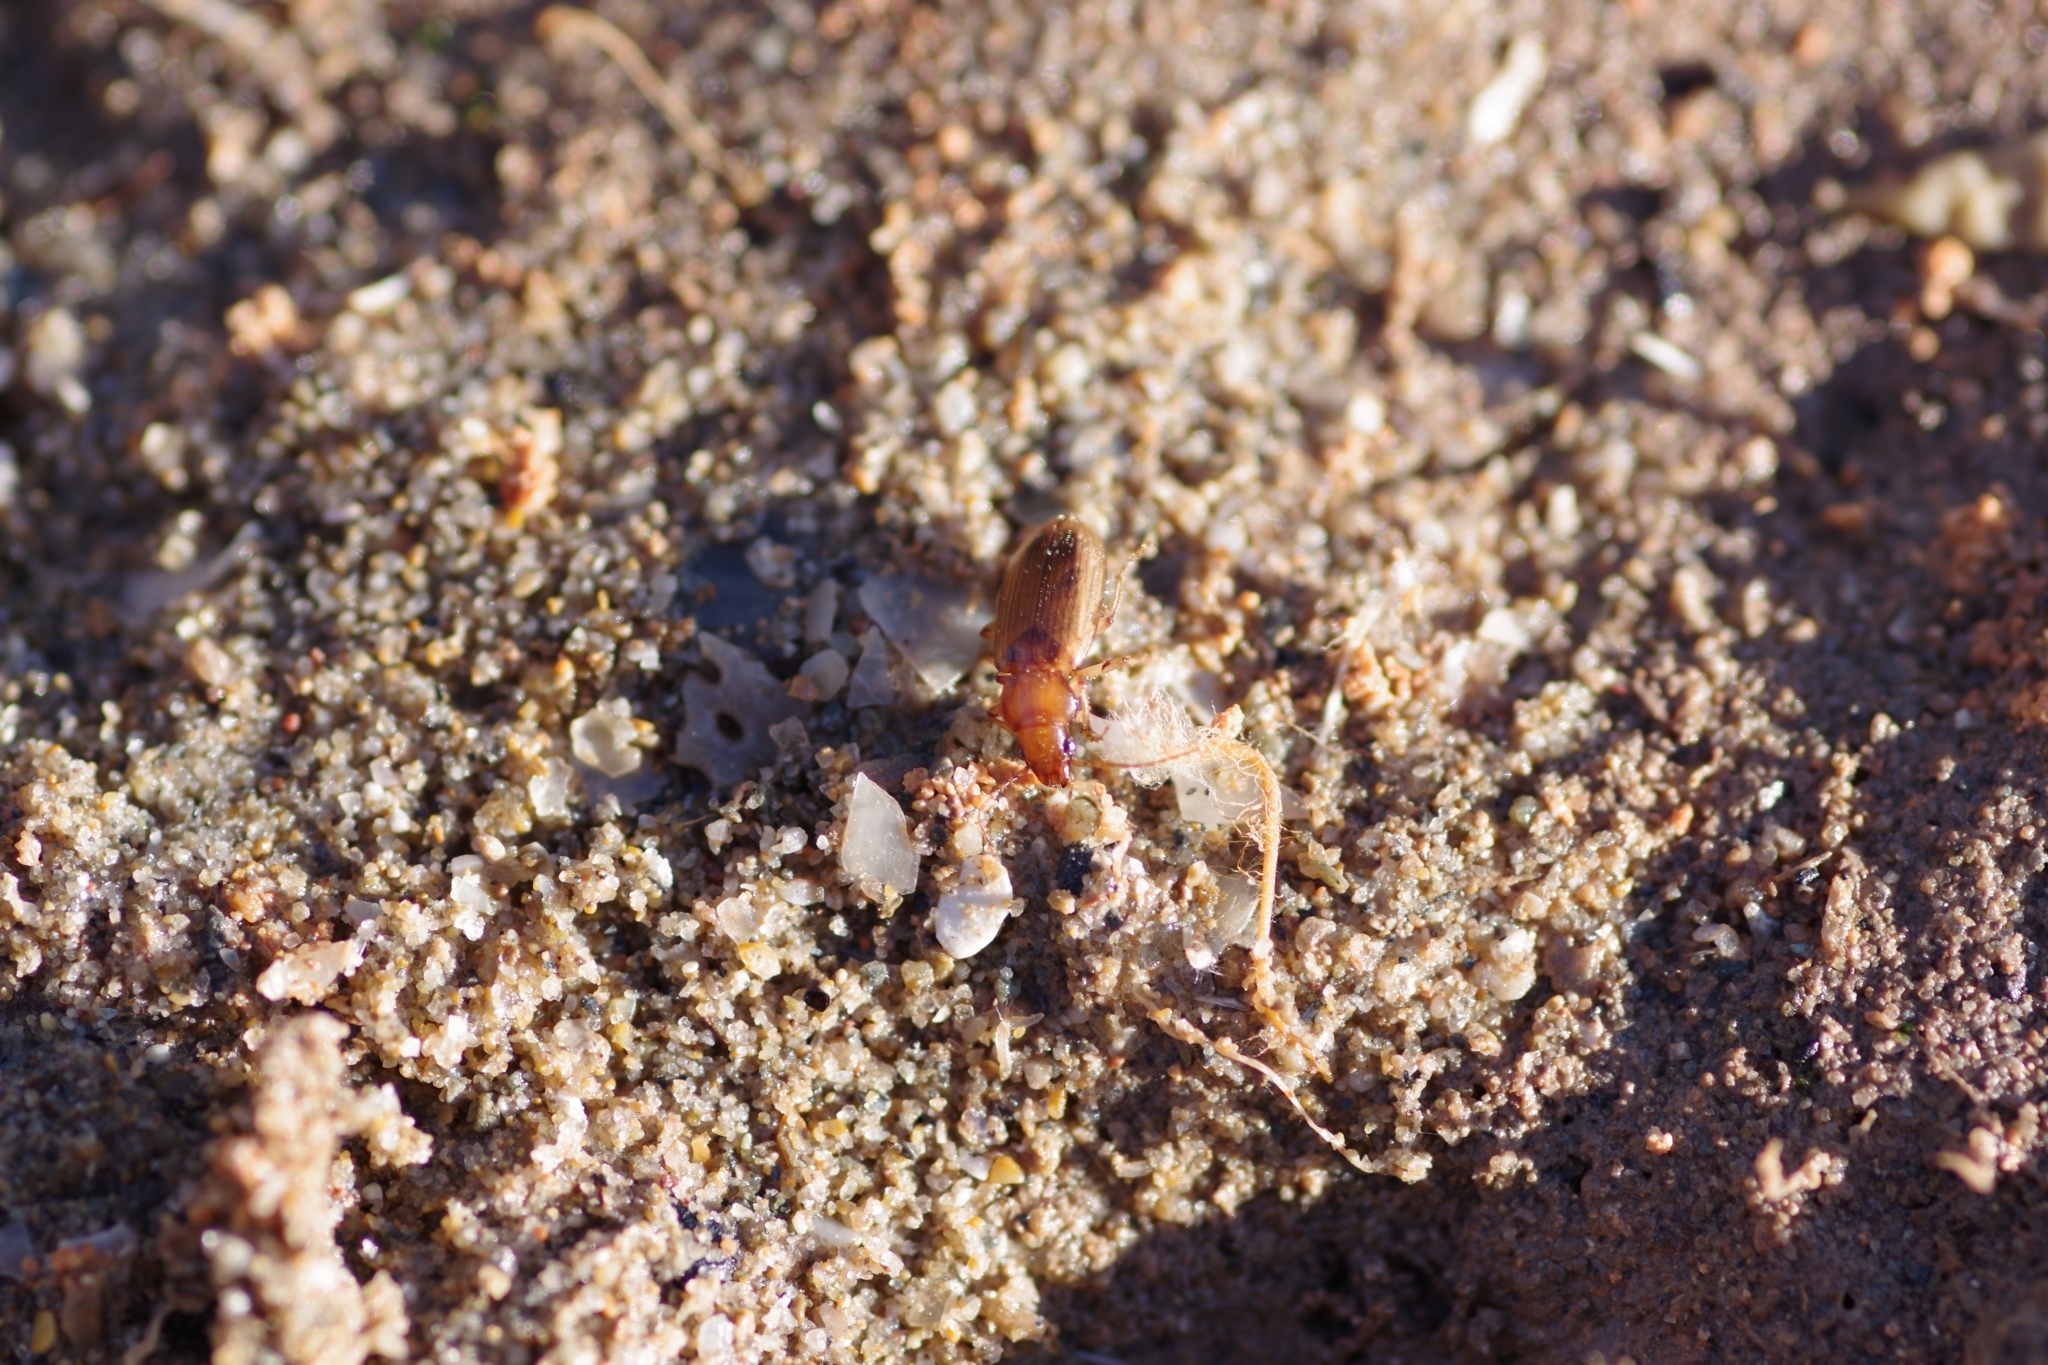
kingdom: Animalia
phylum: Arthropoda
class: Insecta
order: Coleoptera
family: Carabidae
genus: Dicheirotrichus
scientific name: Dicheirotrichus obsoletus
